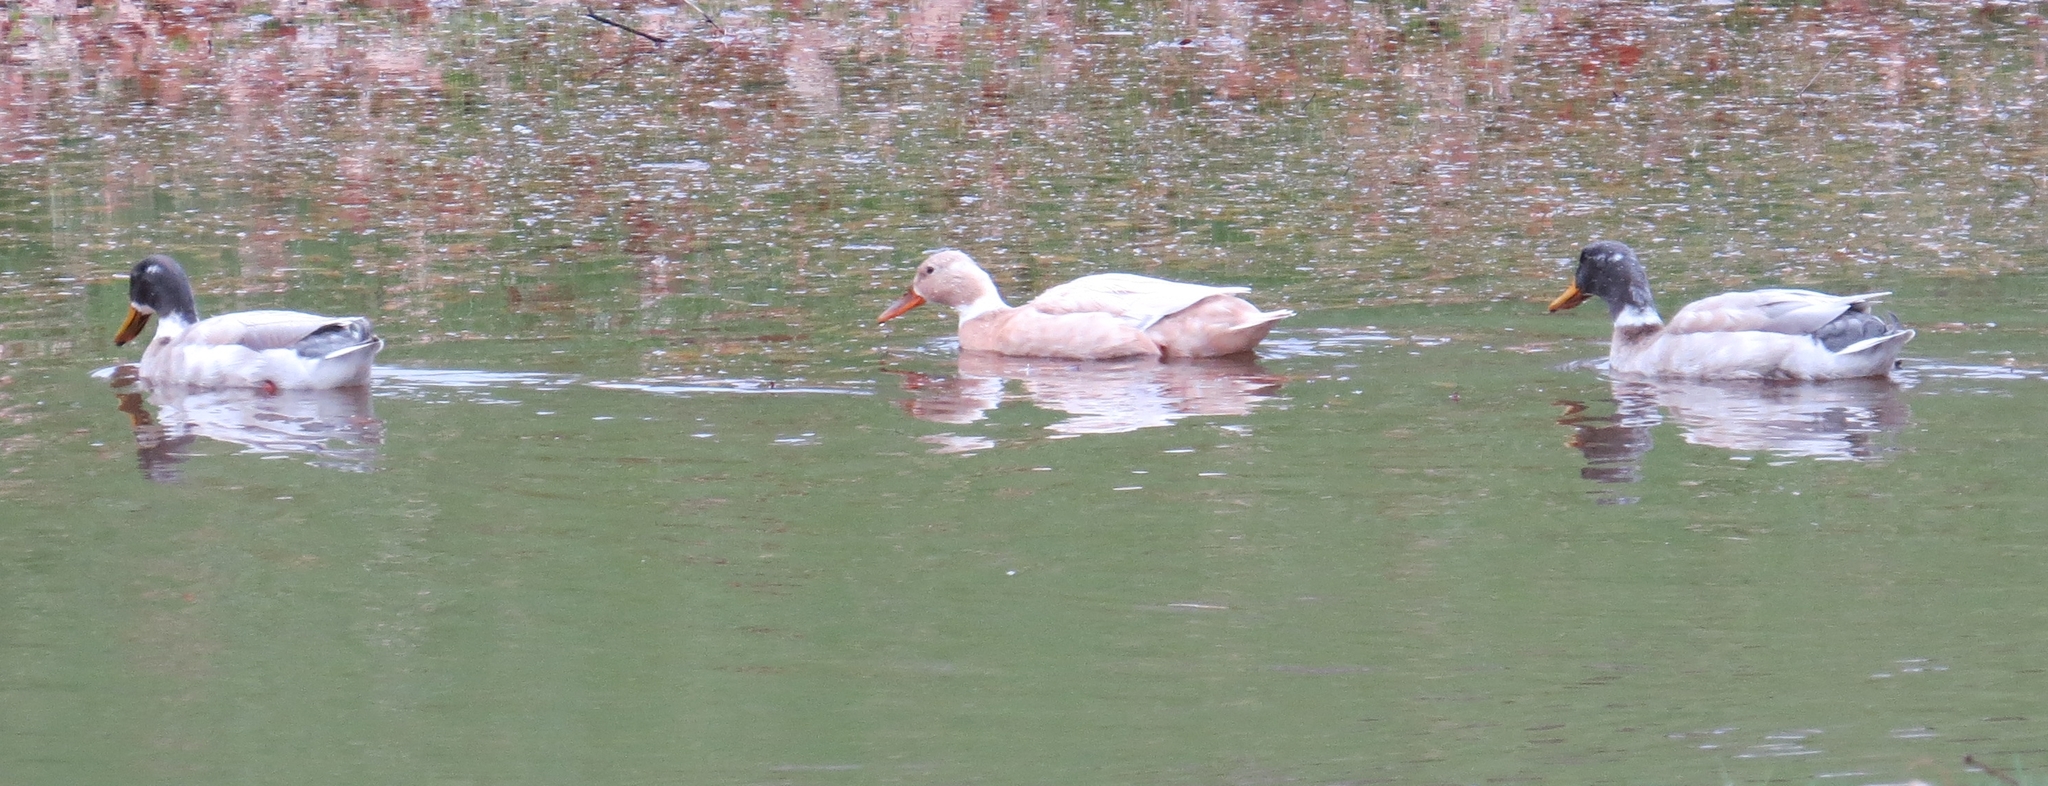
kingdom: Animalia
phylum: Chordata
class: Aves
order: Anseriformes
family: Anatidae
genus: Anas
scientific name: Anas platyrhynchos
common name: Mallard
